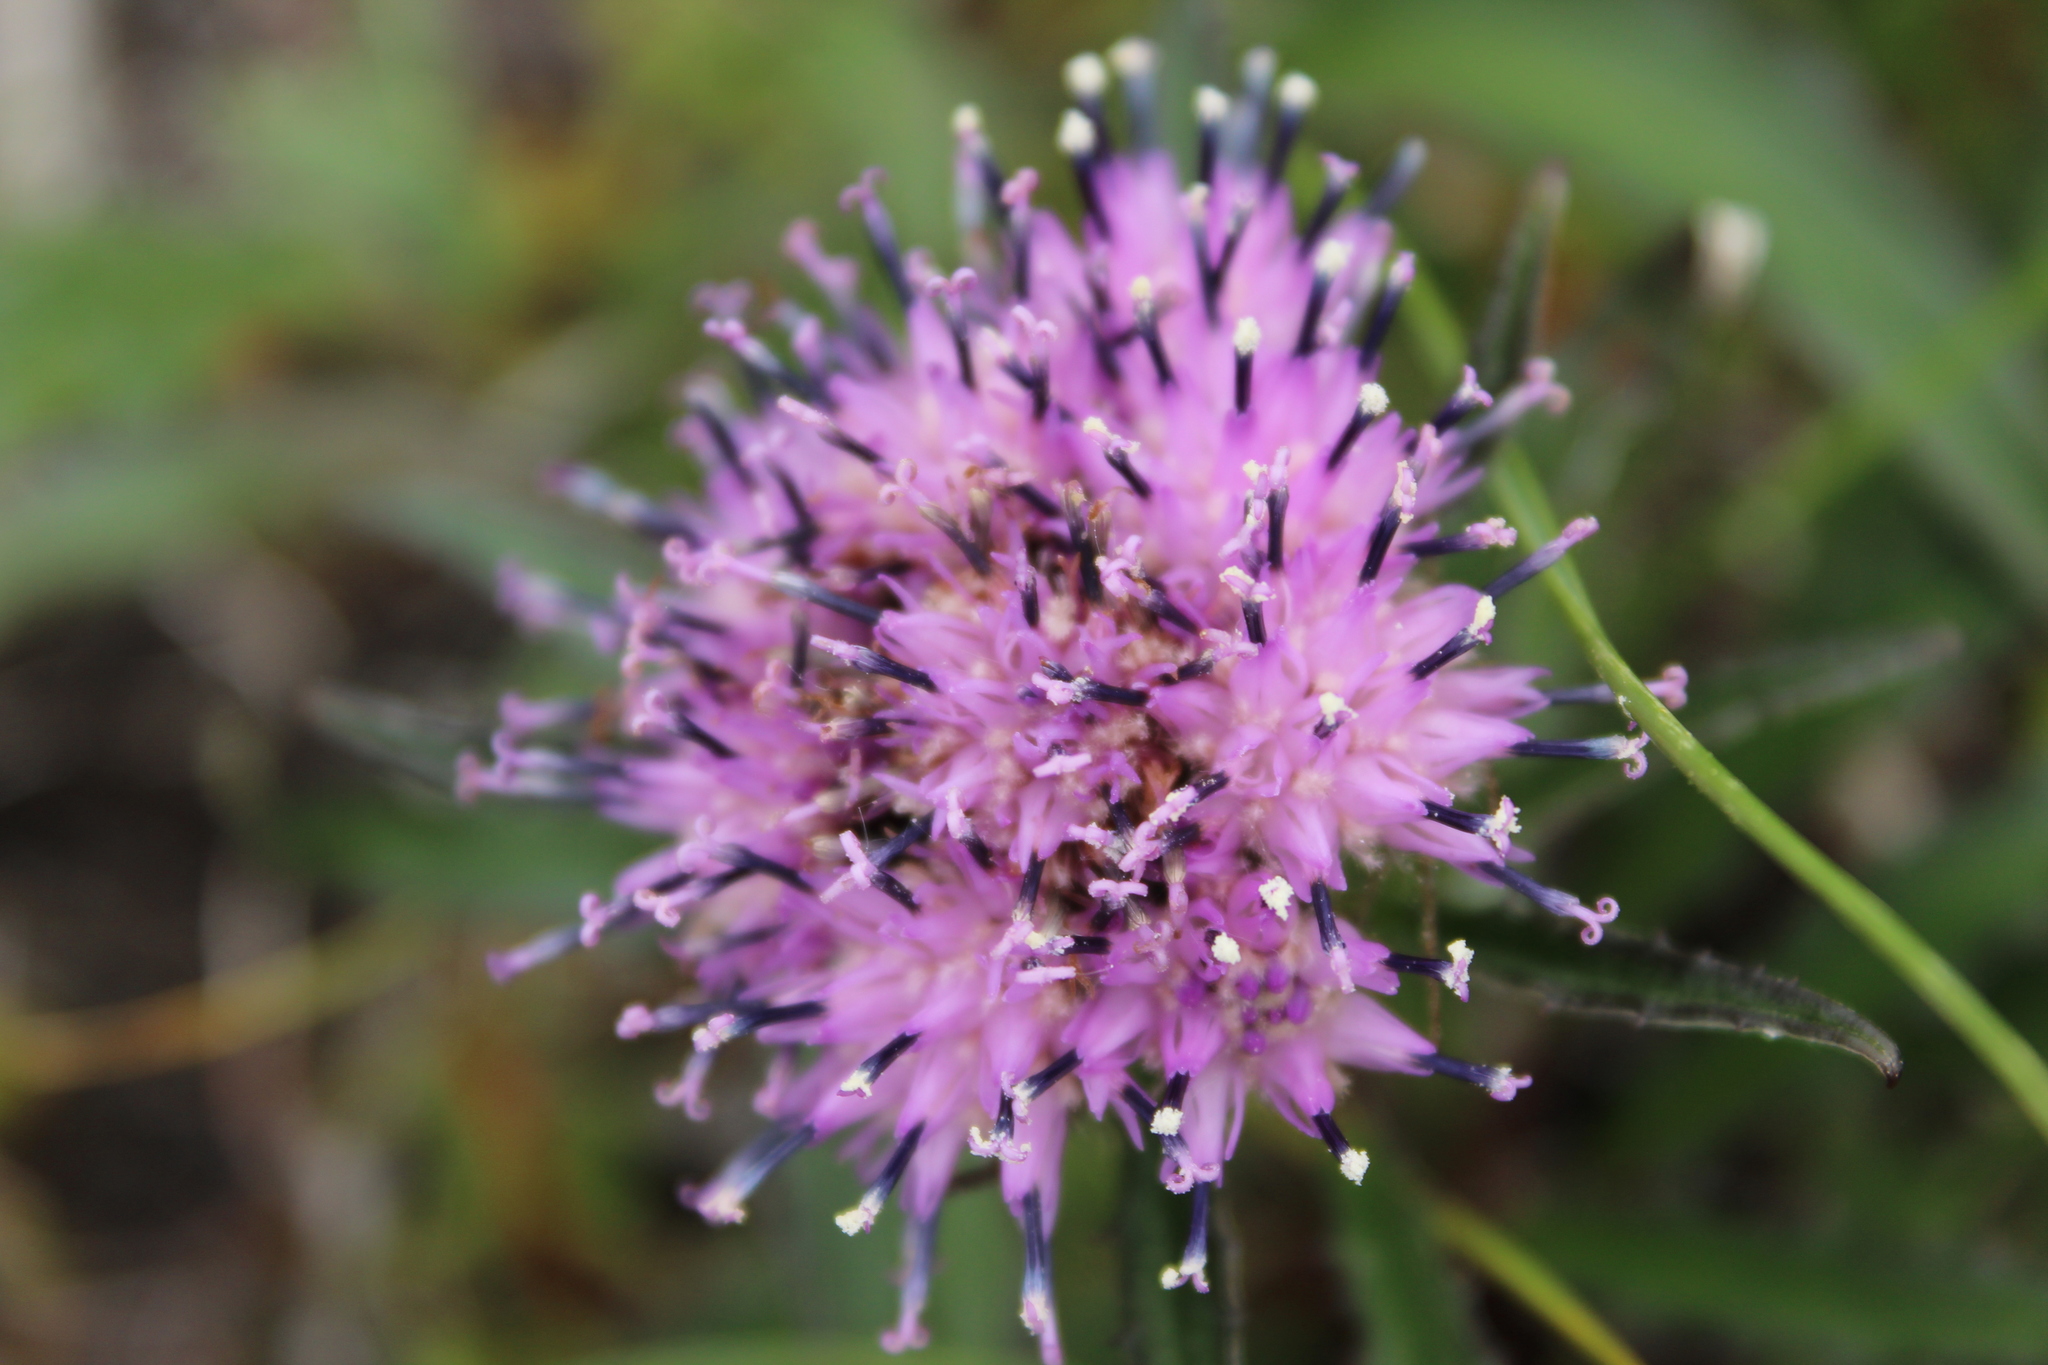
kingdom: Plantae
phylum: Tracheophyta
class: Magnoliopsida
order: Asterales
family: Asteraceae
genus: Saussurea
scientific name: Saussurea tilesii
